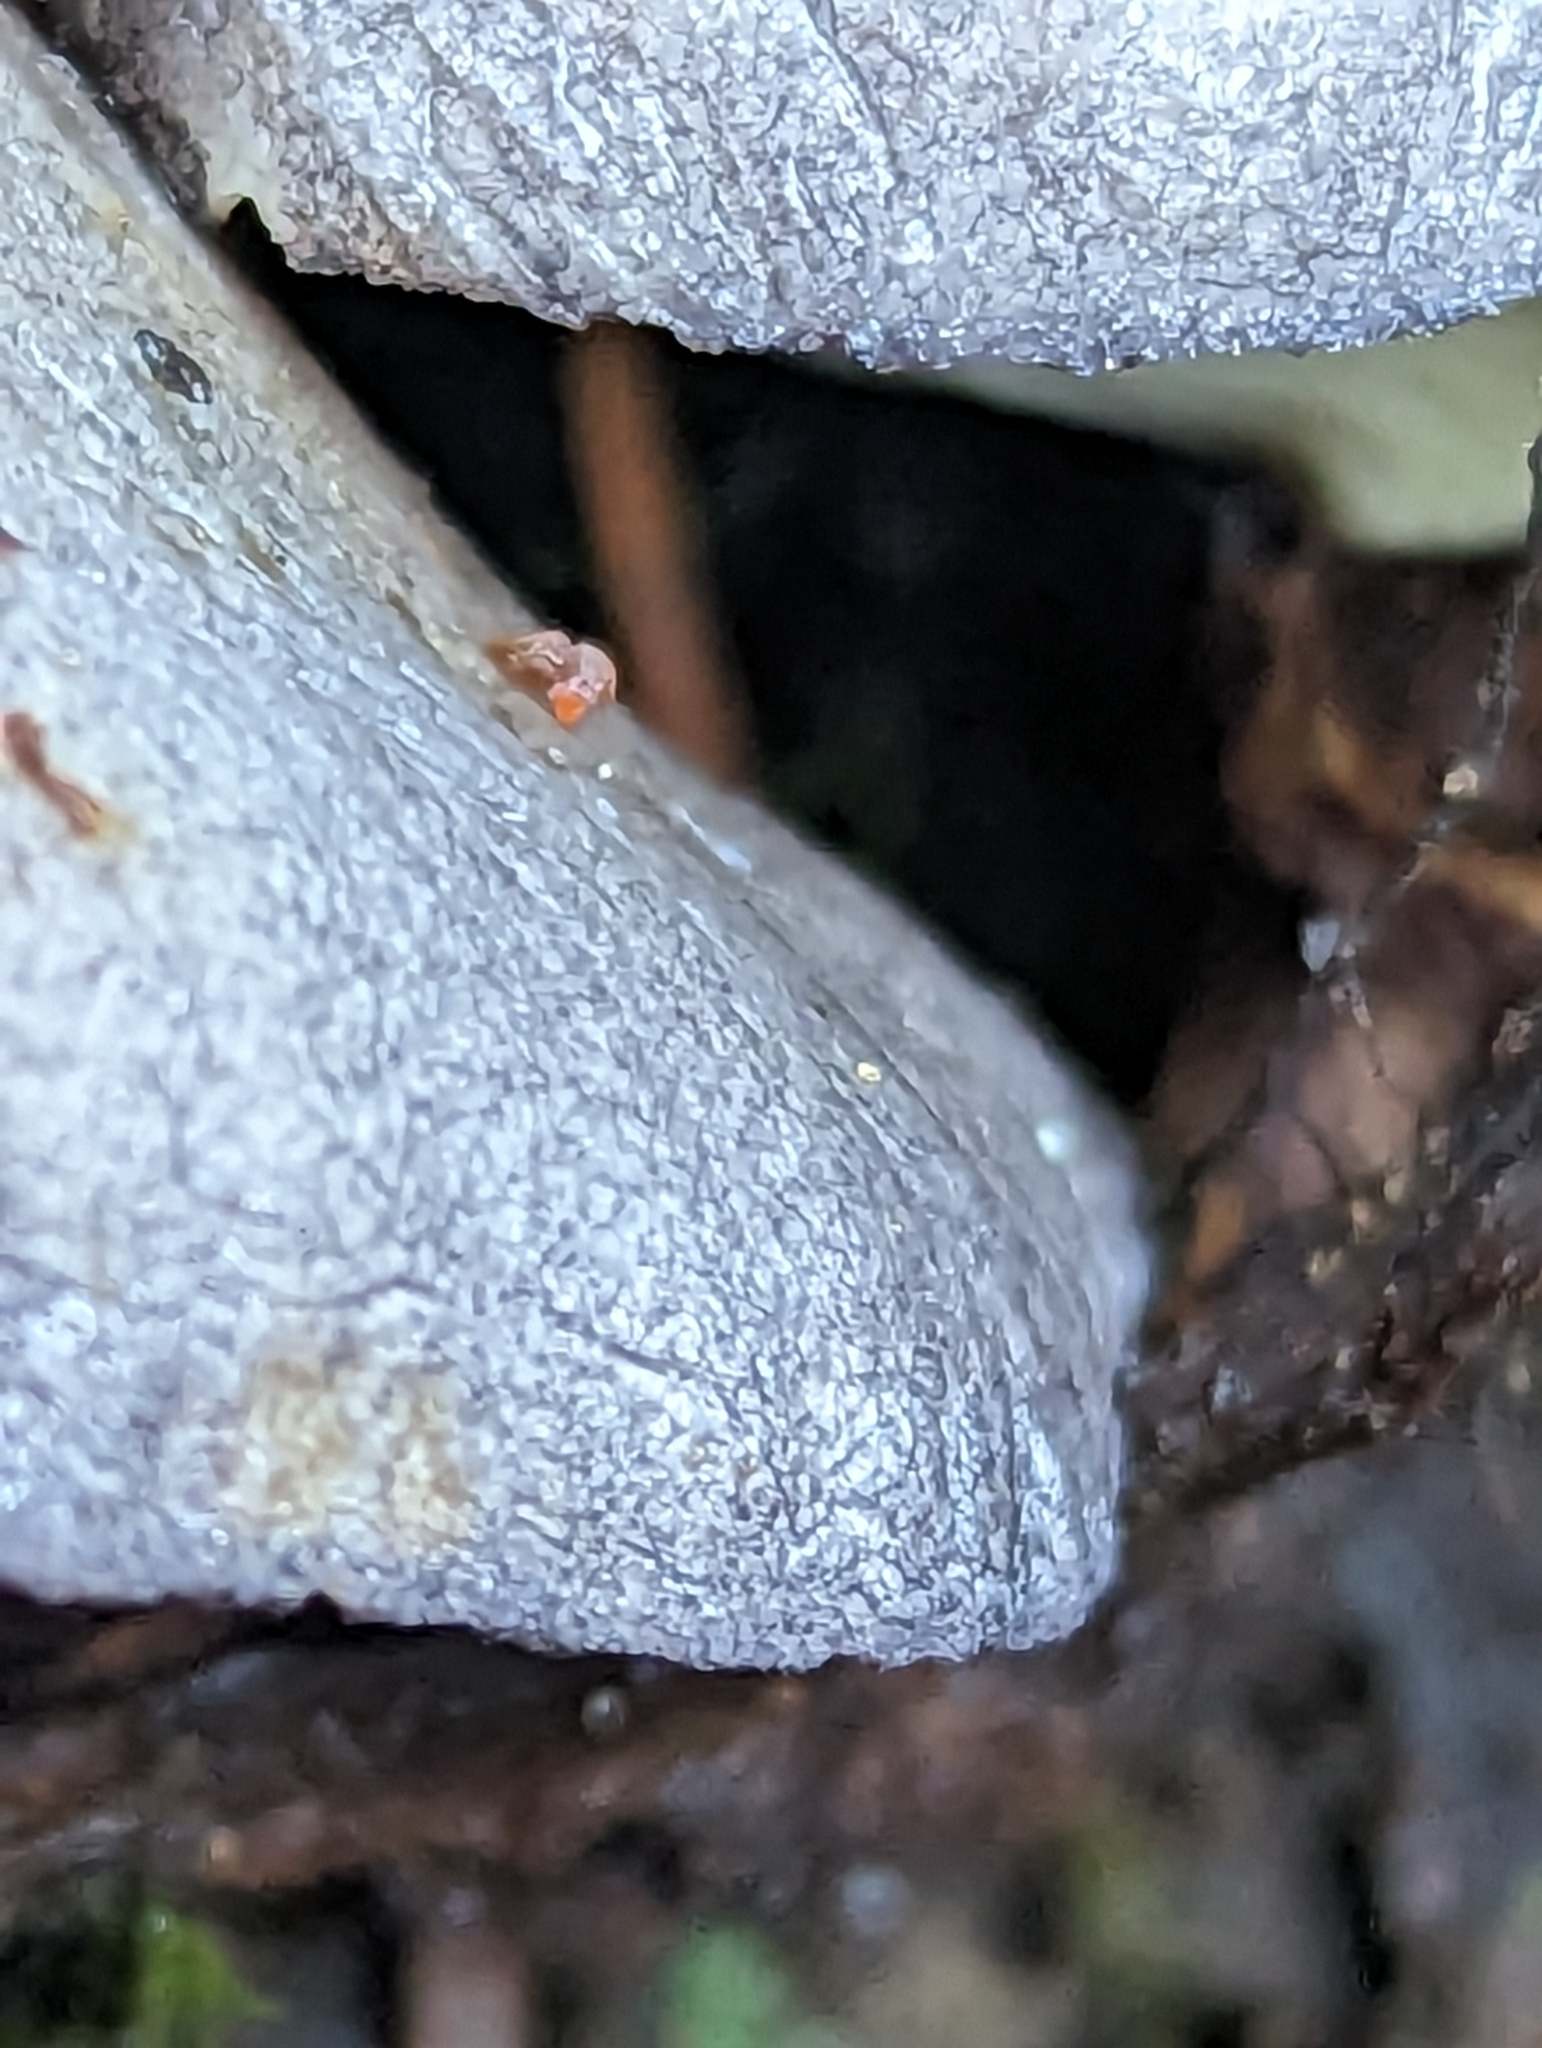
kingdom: Fungi
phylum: Basidiomycota
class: Agaricomycetes
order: Agaricales
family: Sarcomyxaceae
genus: Sarcomyxa
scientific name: Sarcomyxa serotina
